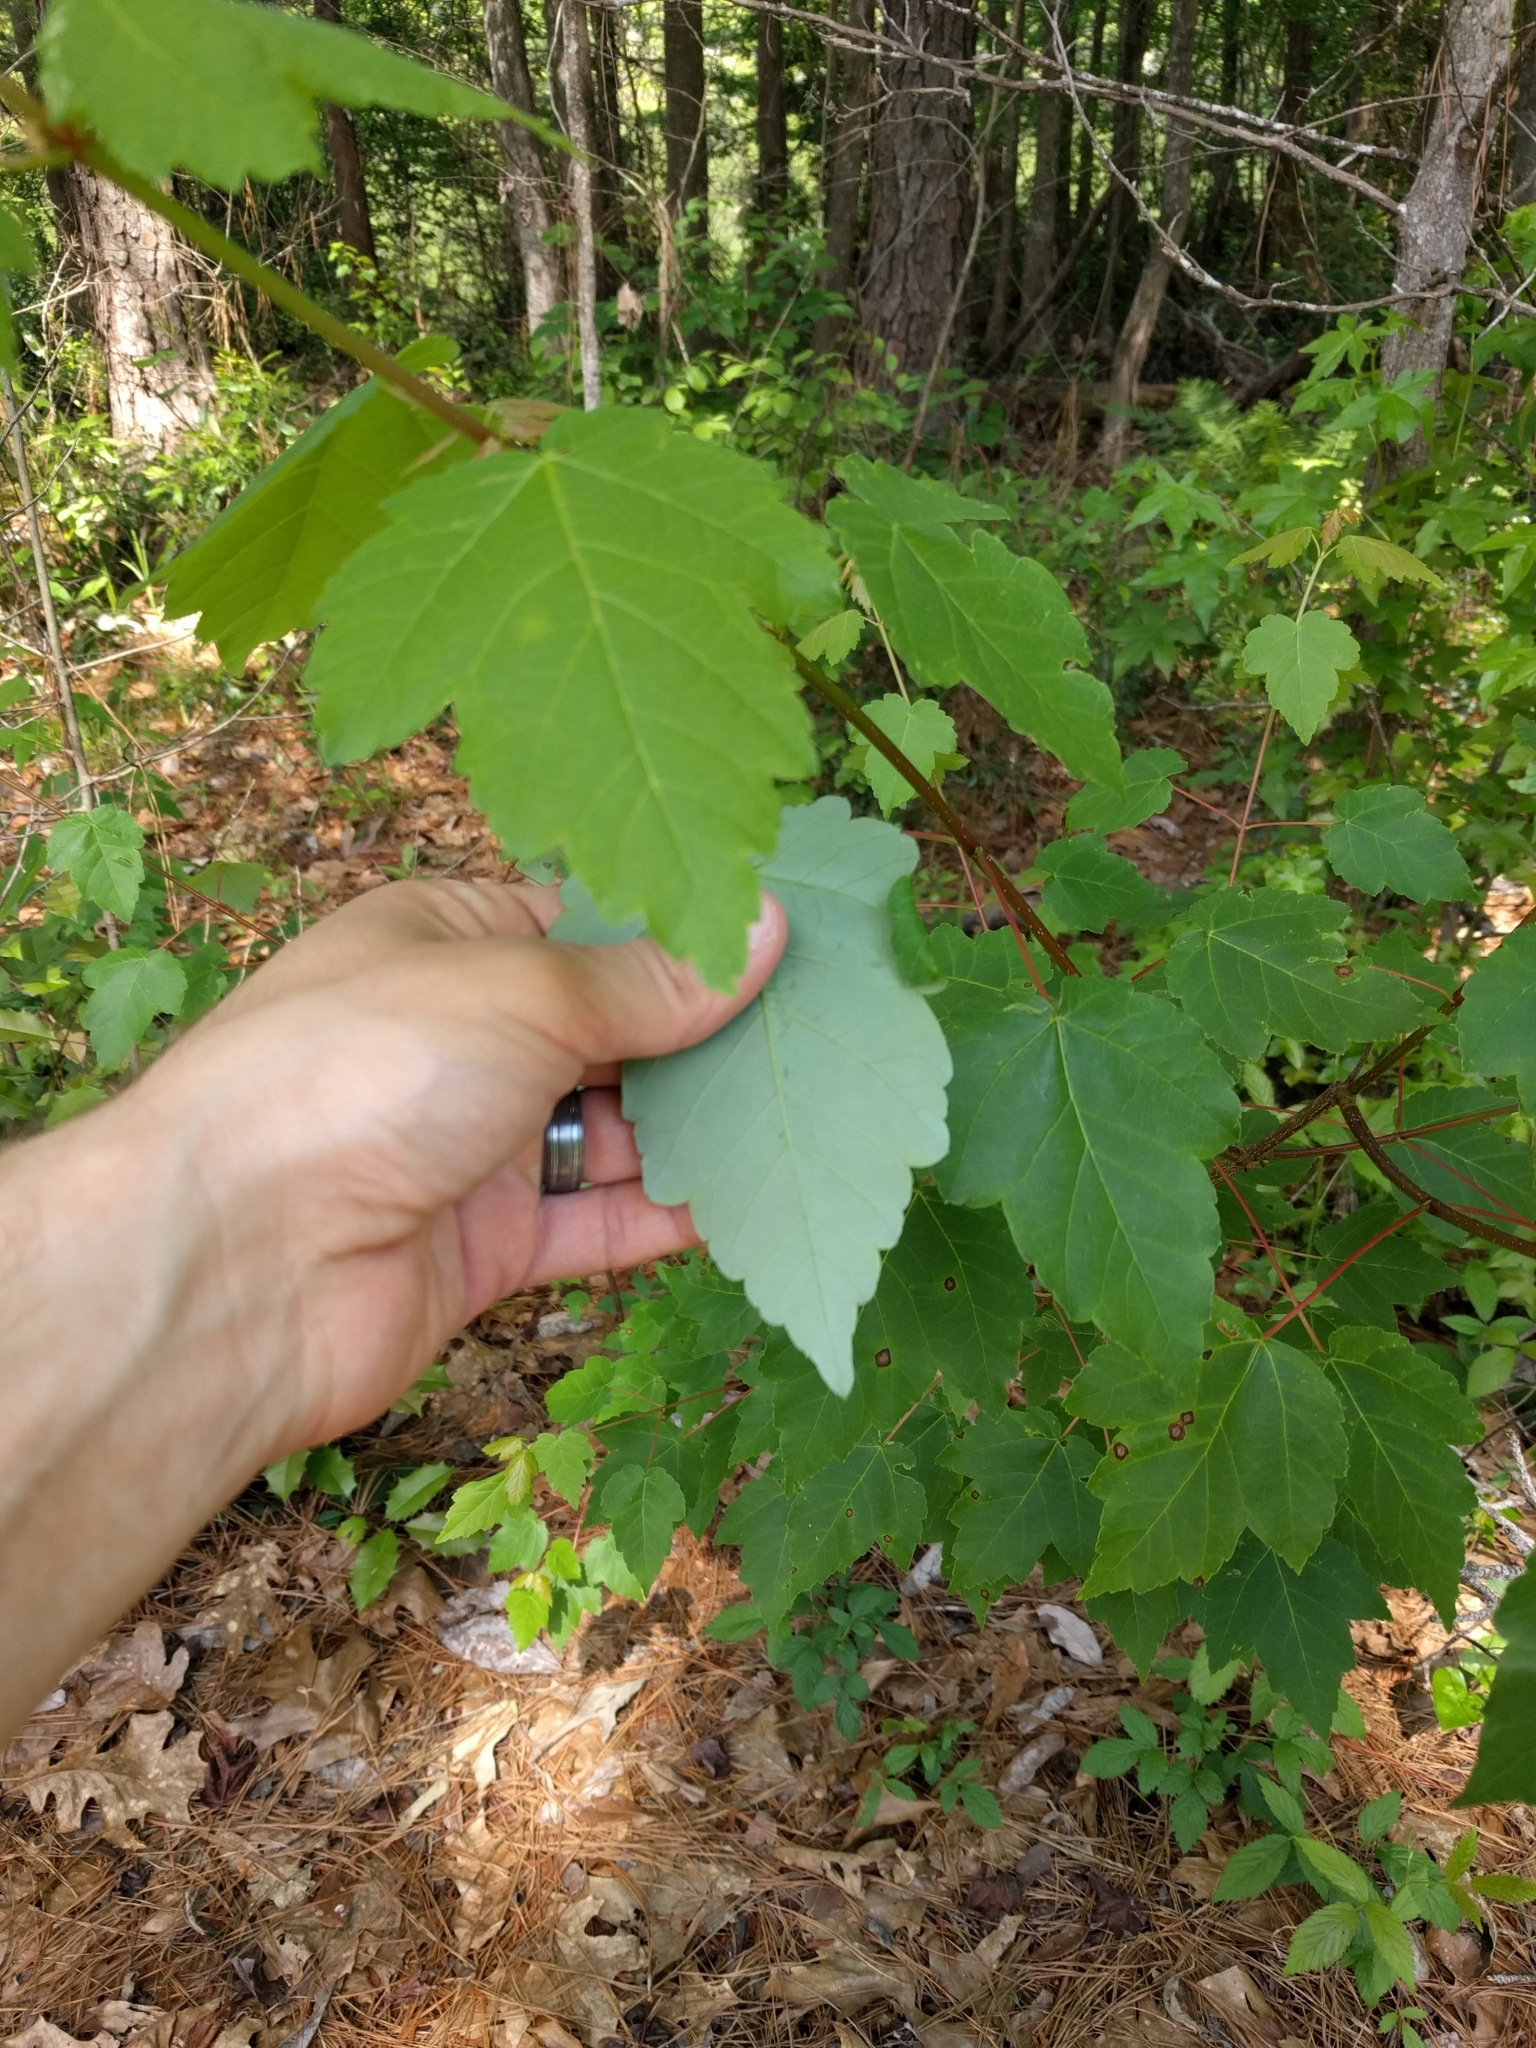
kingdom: Plantae
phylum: Tracheophyta
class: Magnoliopsida
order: Sapindales
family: Sapindaceae
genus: Acer
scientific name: Acer rubrum
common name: Red maple
